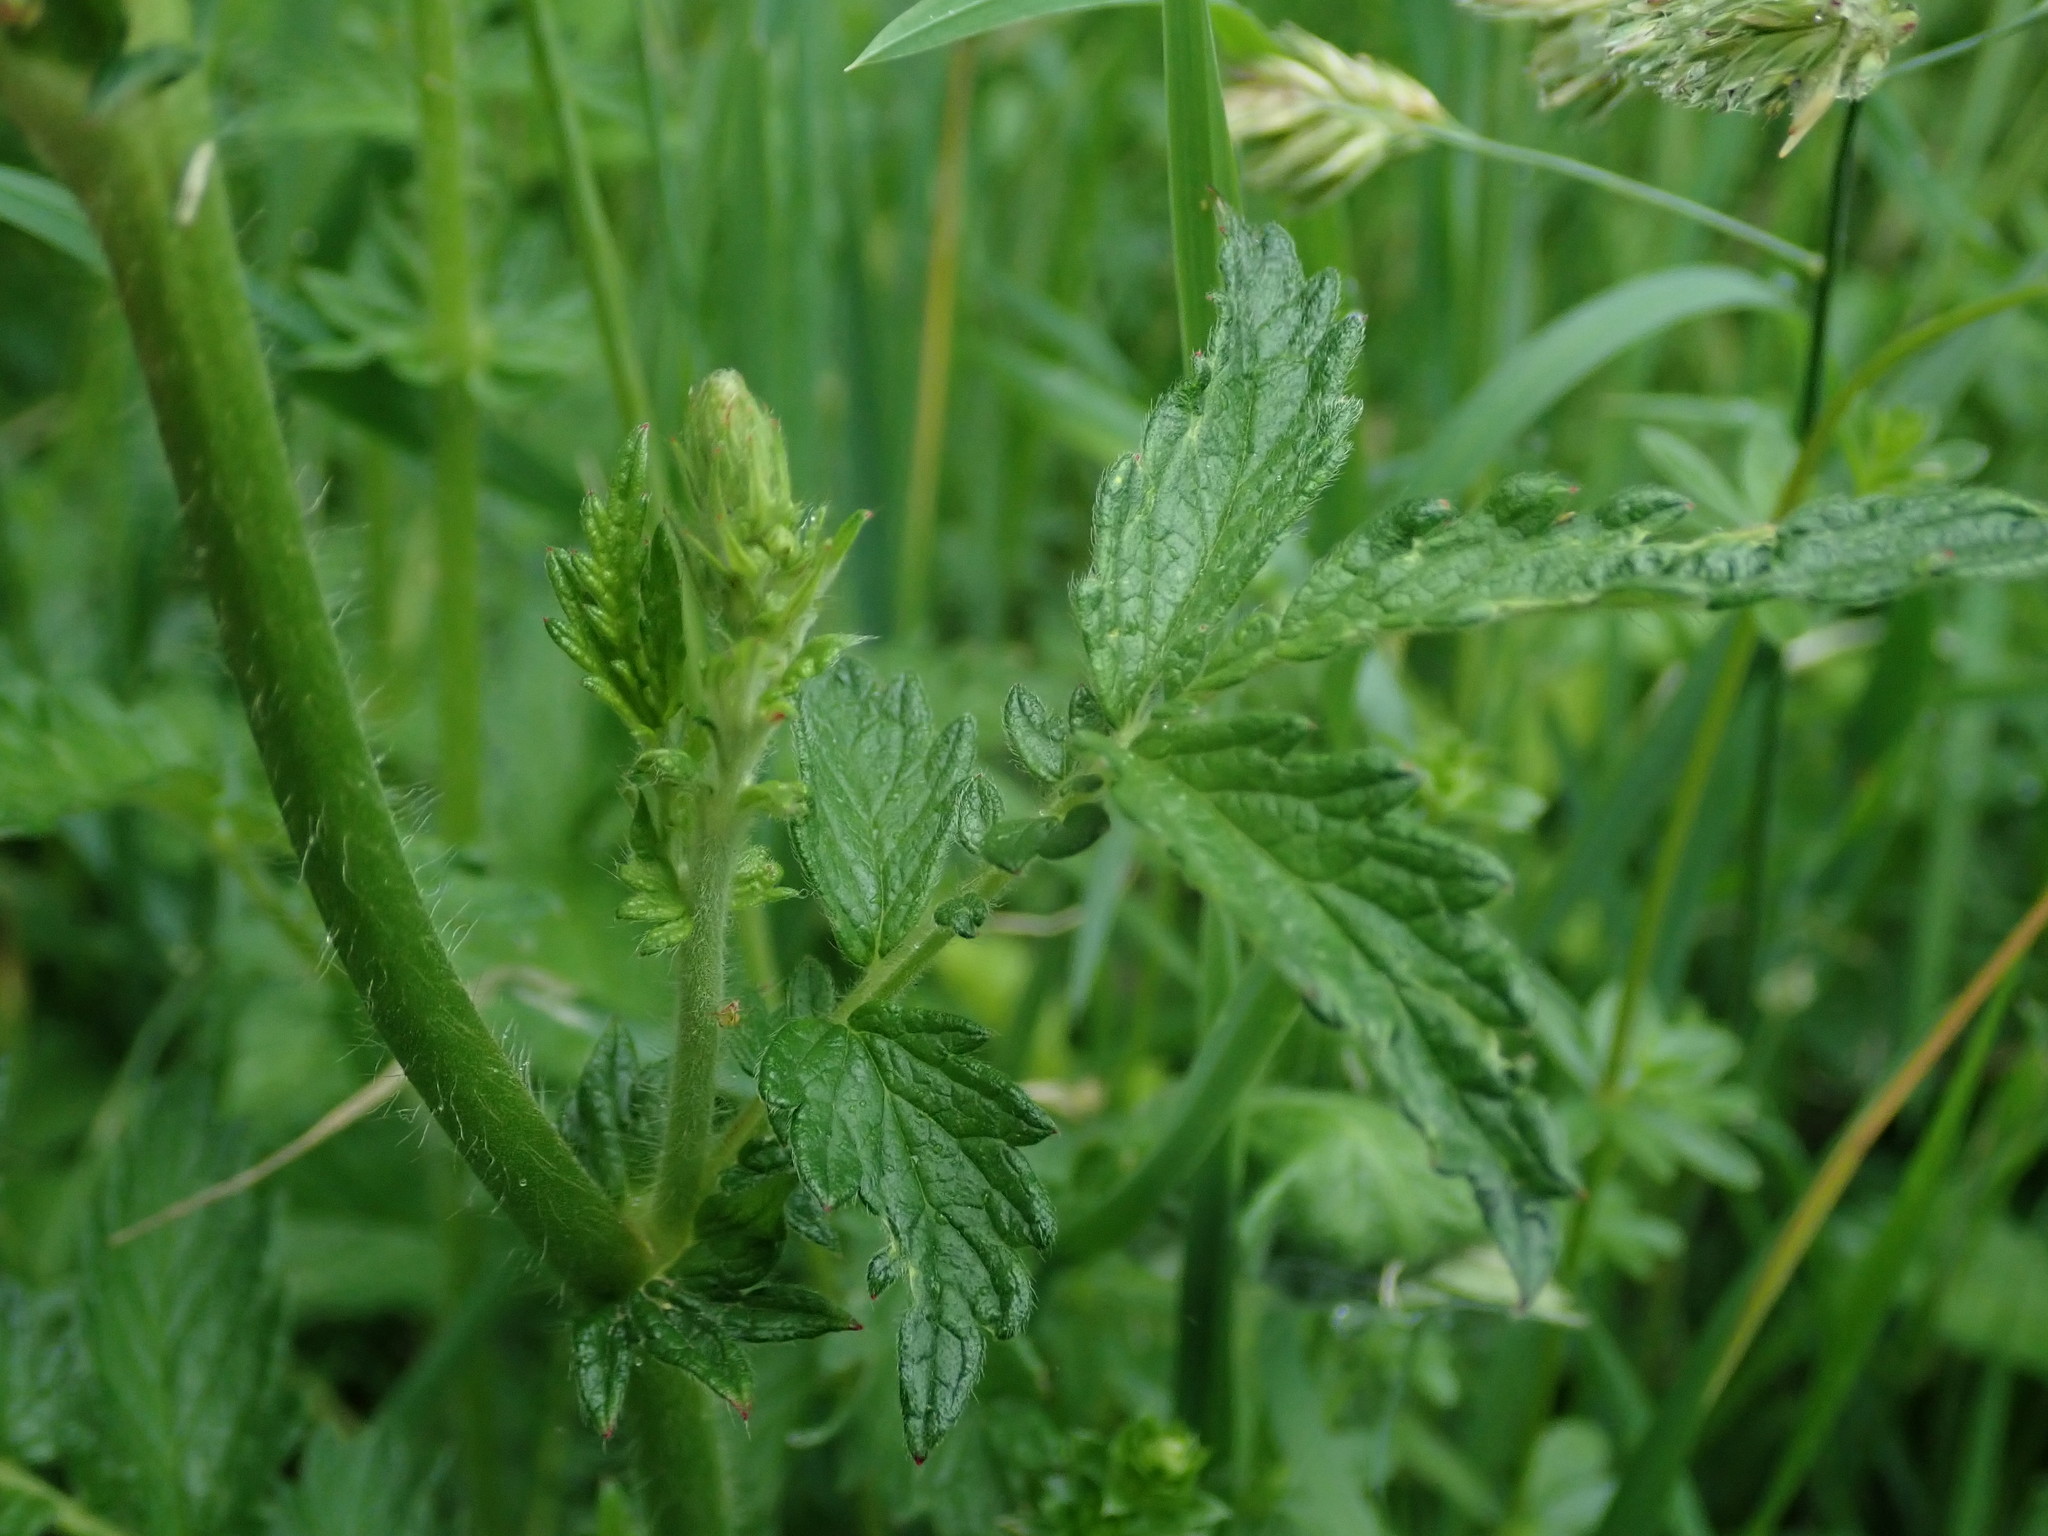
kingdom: Plantae
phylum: Tracheophyta
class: Magnoliopsida
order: Rosales
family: Rosaceae
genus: Agrimonia
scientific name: Agrimonia eupatoria
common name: Agrimony
